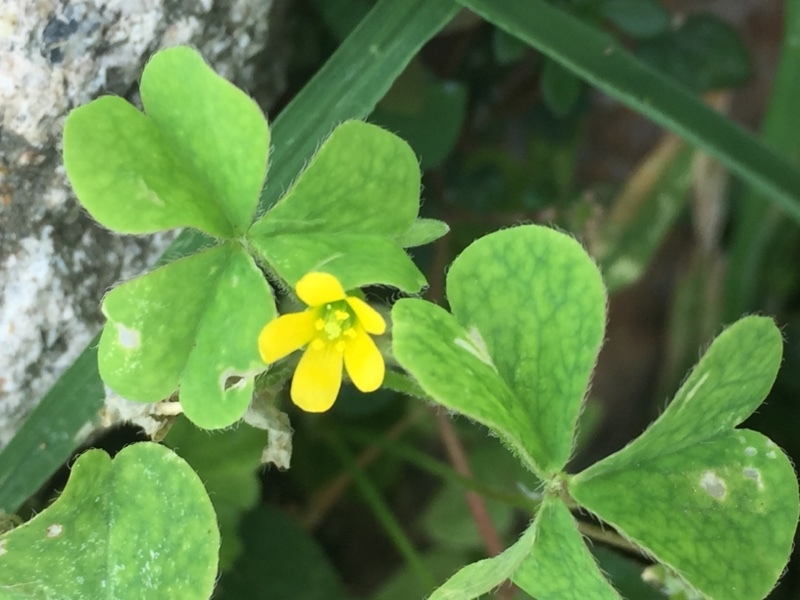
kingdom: Plantae
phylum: Tracheophyta
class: Magnoliopsida
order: Oxalidales
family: Oxalidaceae
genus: Oxalis
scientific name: Oxalis corniculata
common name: Procumbent yellow-sorrel
